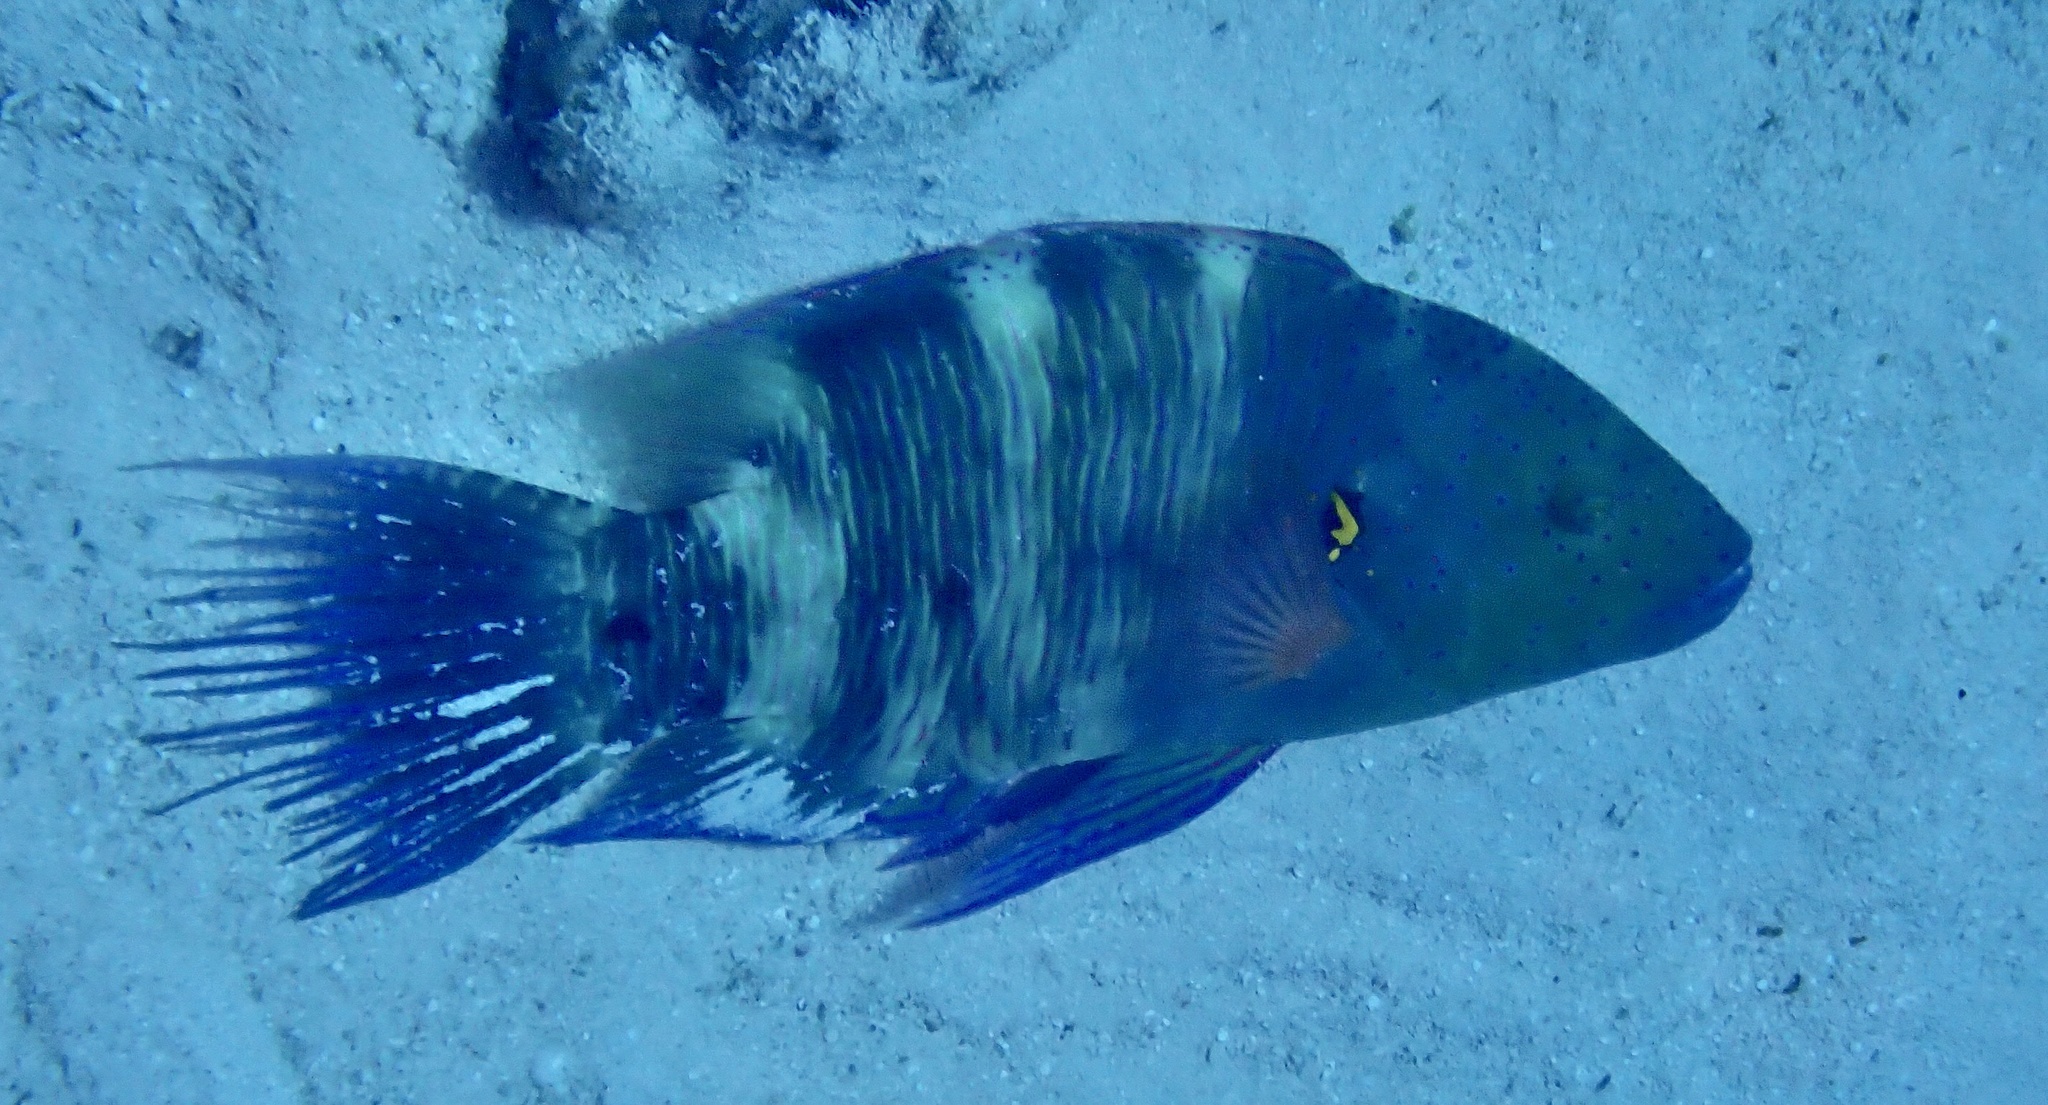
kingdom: Animalia
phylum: Chordata
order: Perciformes
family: Labridae
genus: Cheilinus
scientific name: Cheilinus lunulatus
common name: Broomtail wrasse
